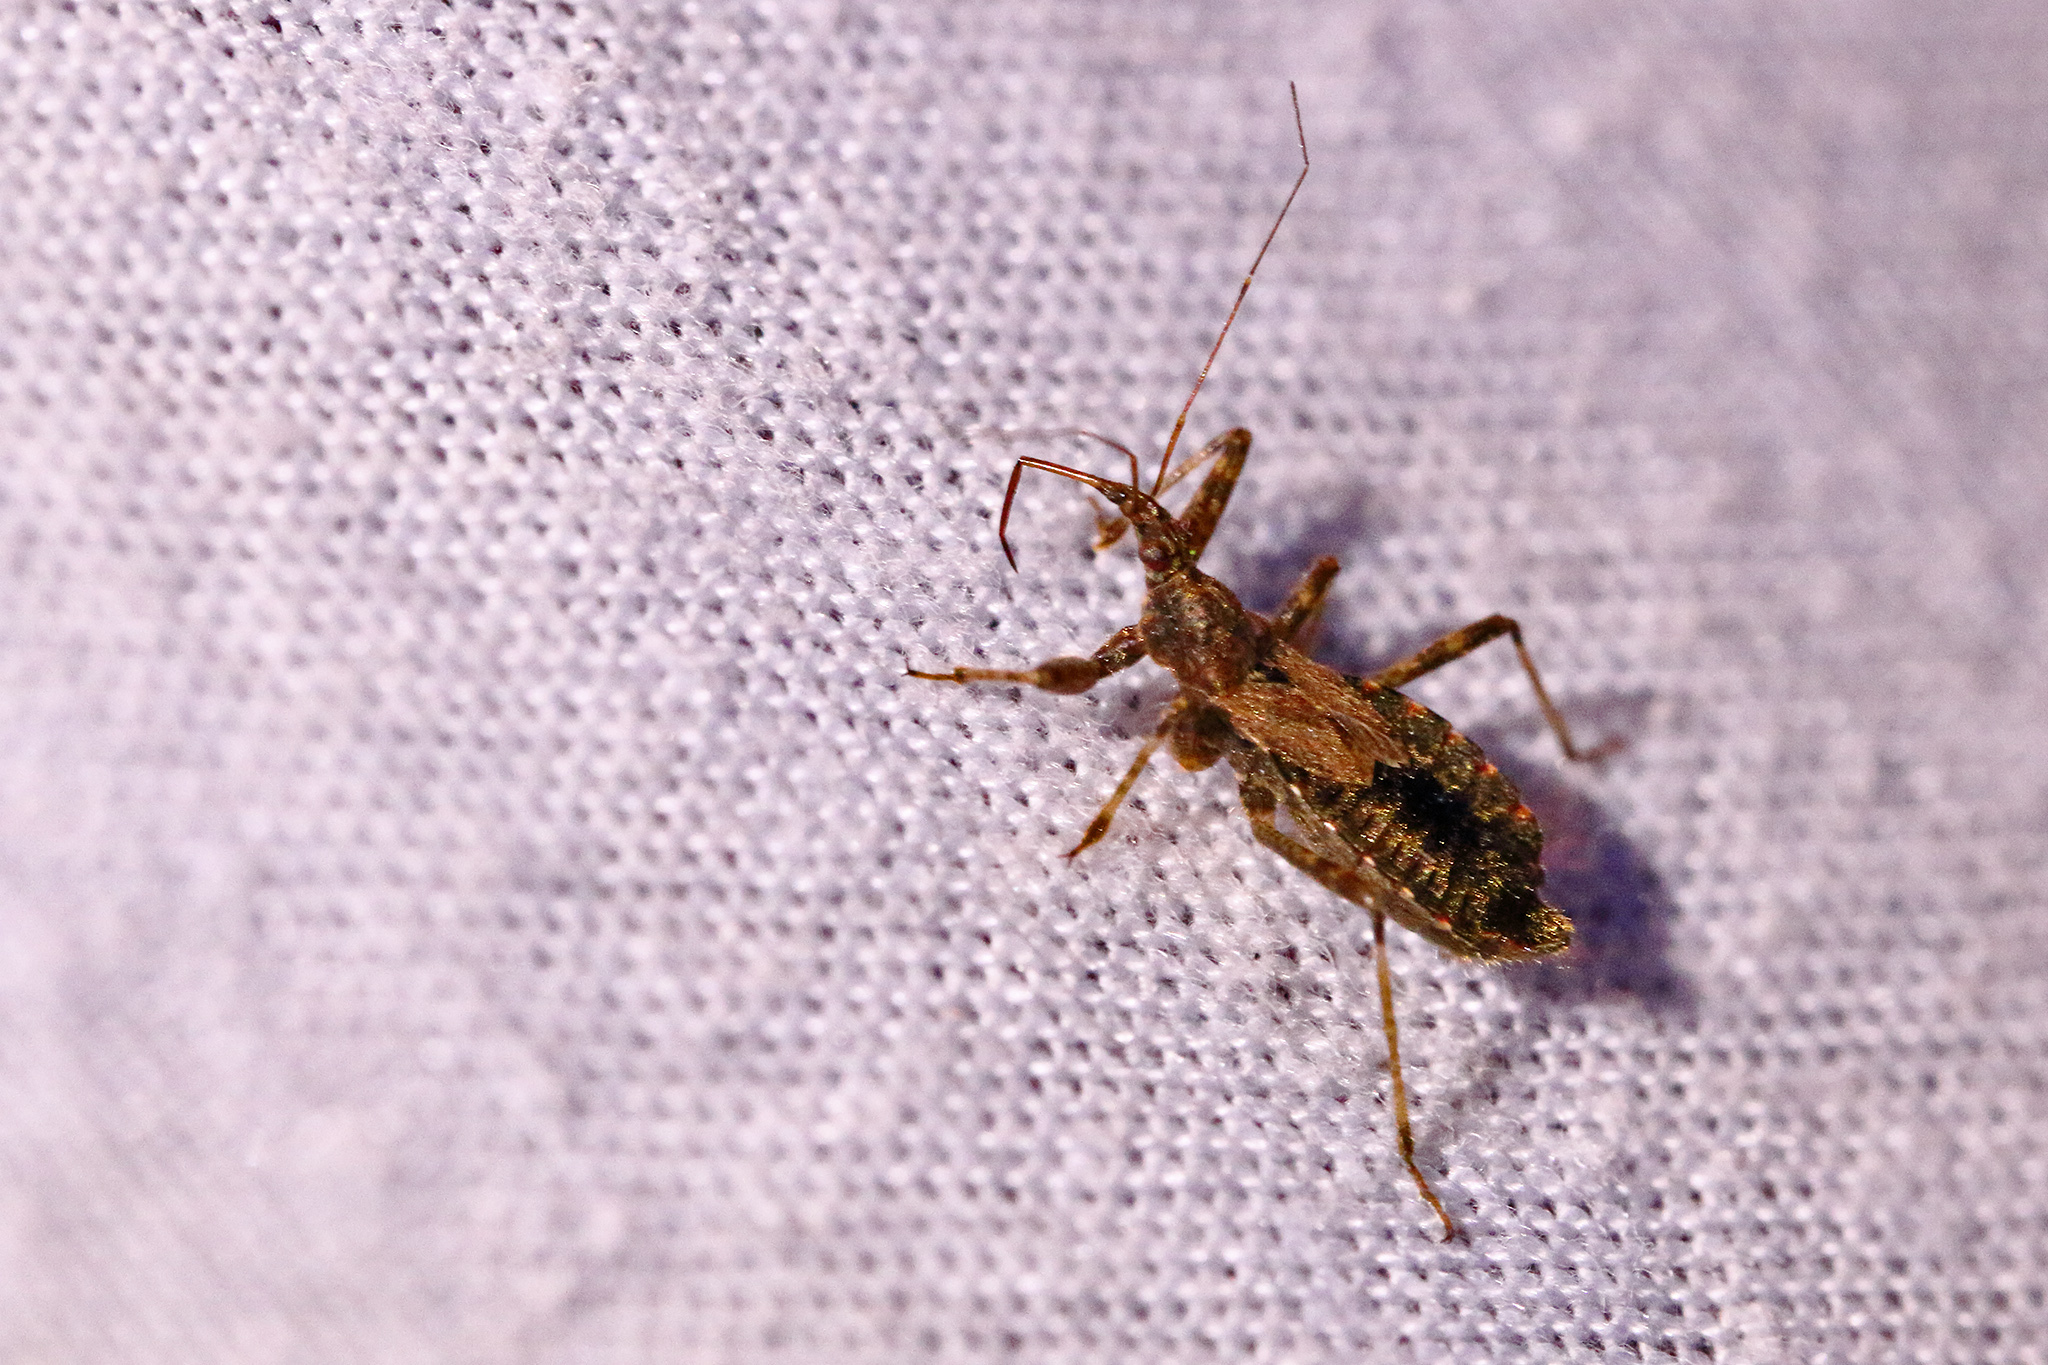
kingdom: Animalia
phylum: Arthropoda
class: Insecta
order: Hemiptera
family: Nabidae
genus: Himacerus
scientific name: Himacerus mirmicoides
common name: Ant damsel bug
